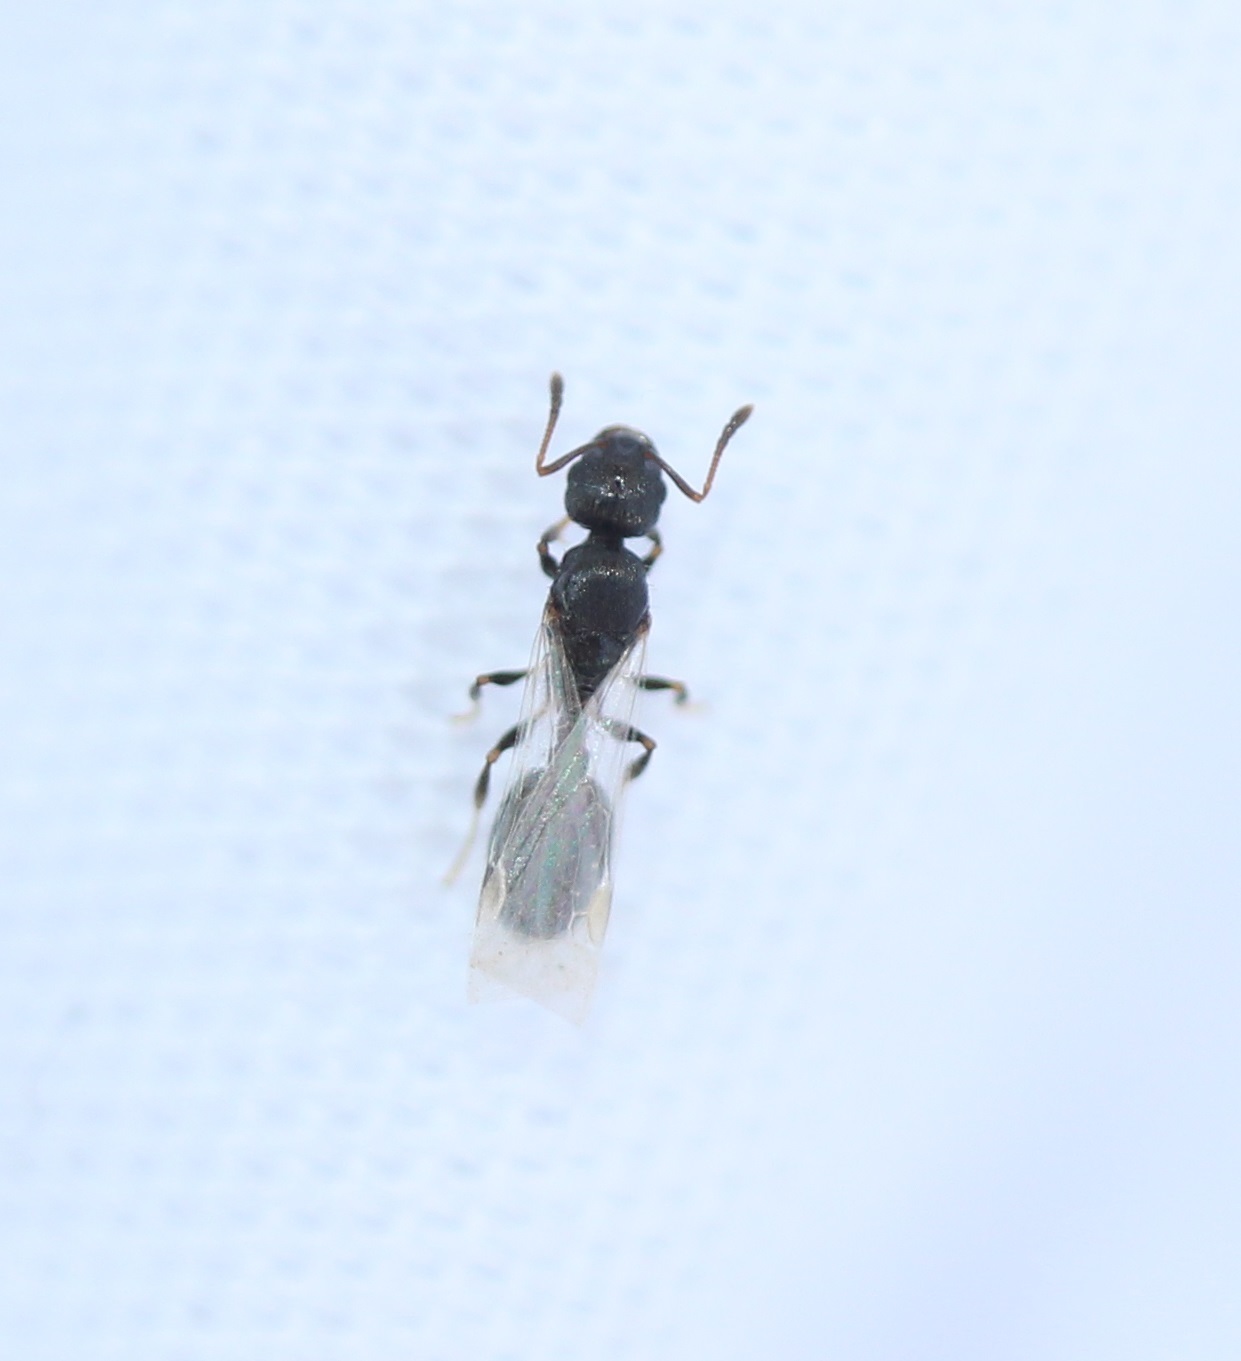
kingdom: Animalia
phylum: Arthropoda
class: Insecta
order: Hymenoptera
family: Formicidae
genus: Temnothorax
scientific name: Temnothorax longispinosus
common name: Long-spined acorn ant
